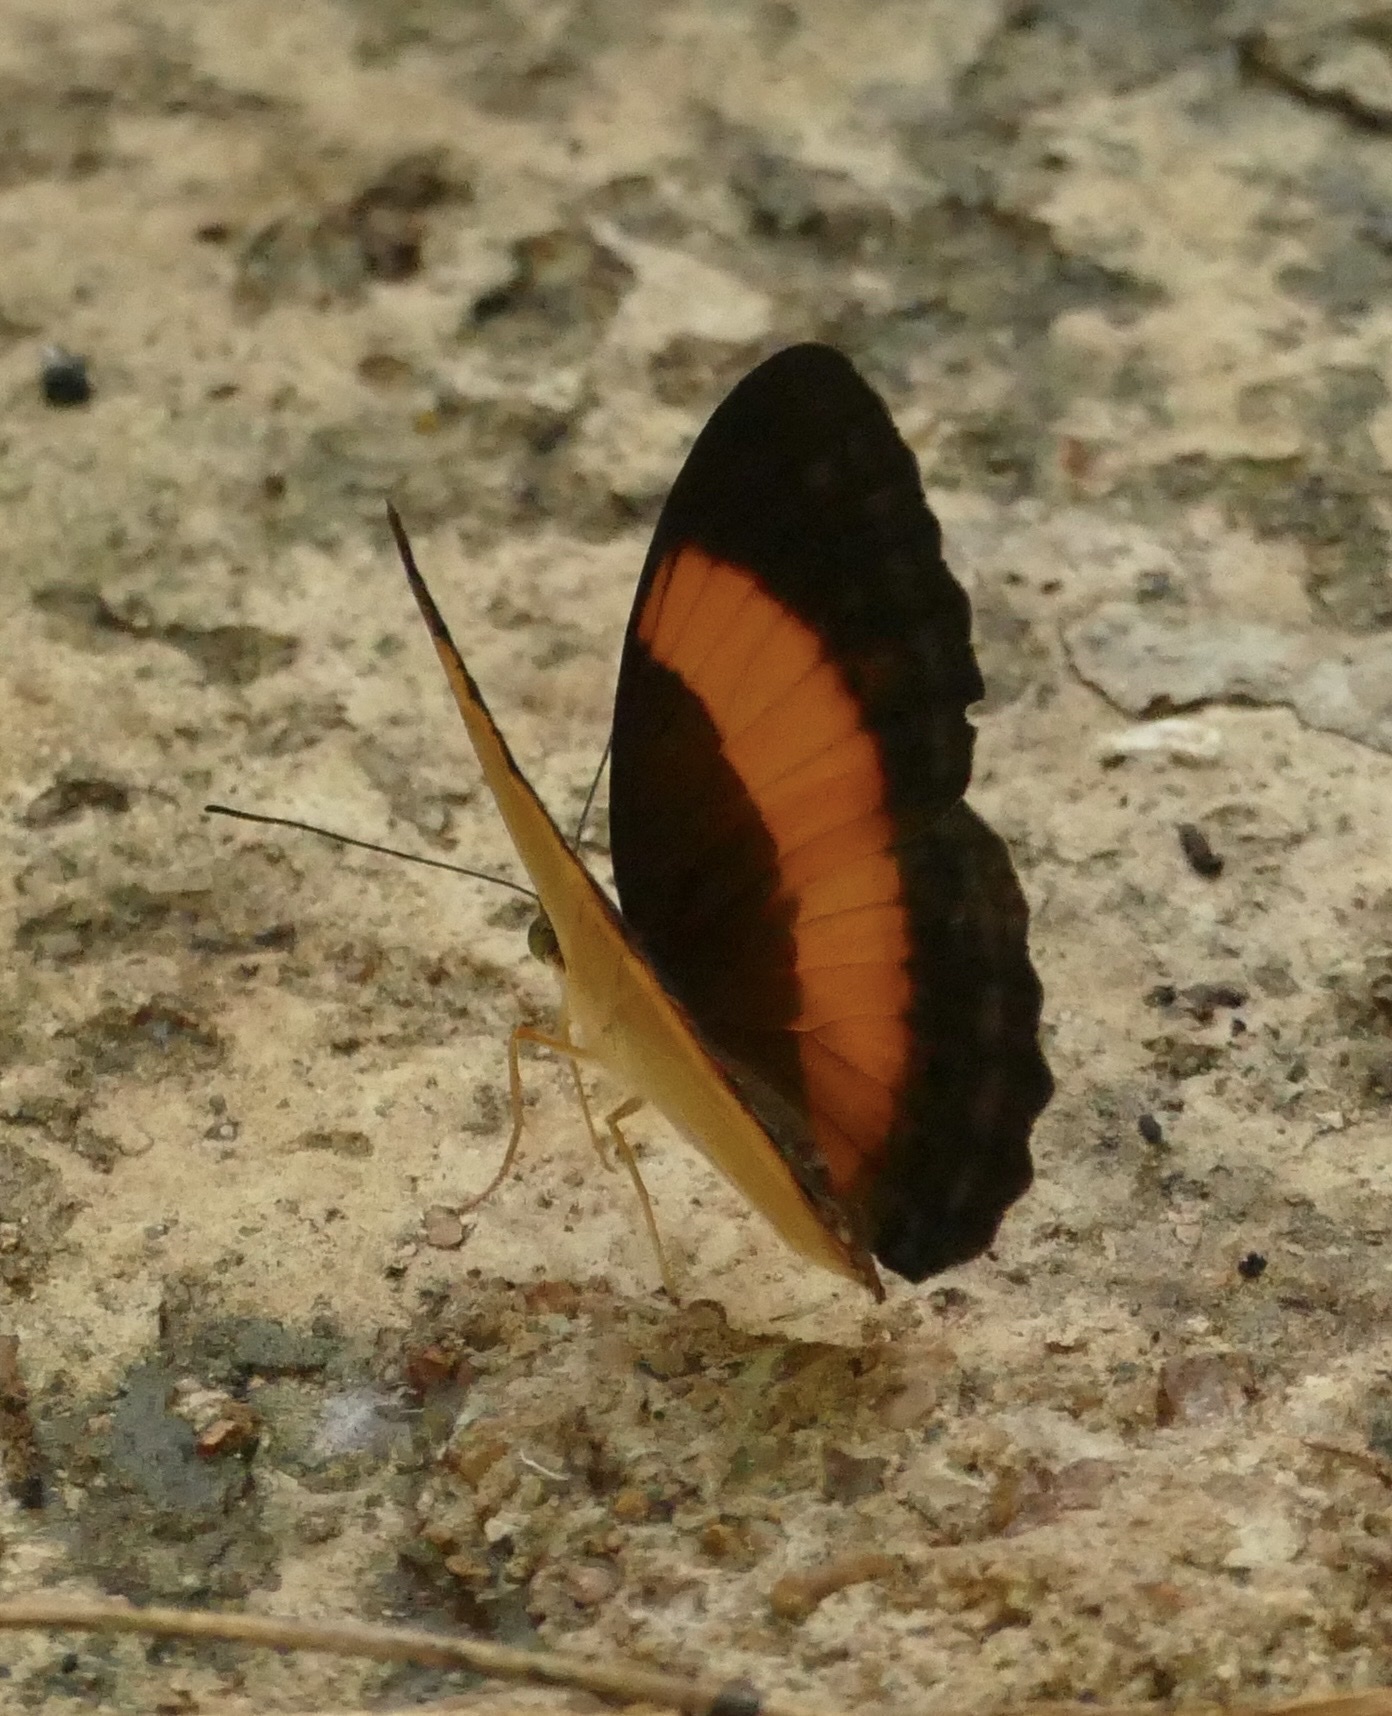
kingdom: Animalia
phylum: Arthropoda
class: Insecta
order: Lepidoptera
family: Nymphalidae
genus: Cupha
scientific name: Cupha prosope
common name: Bordered rustic
